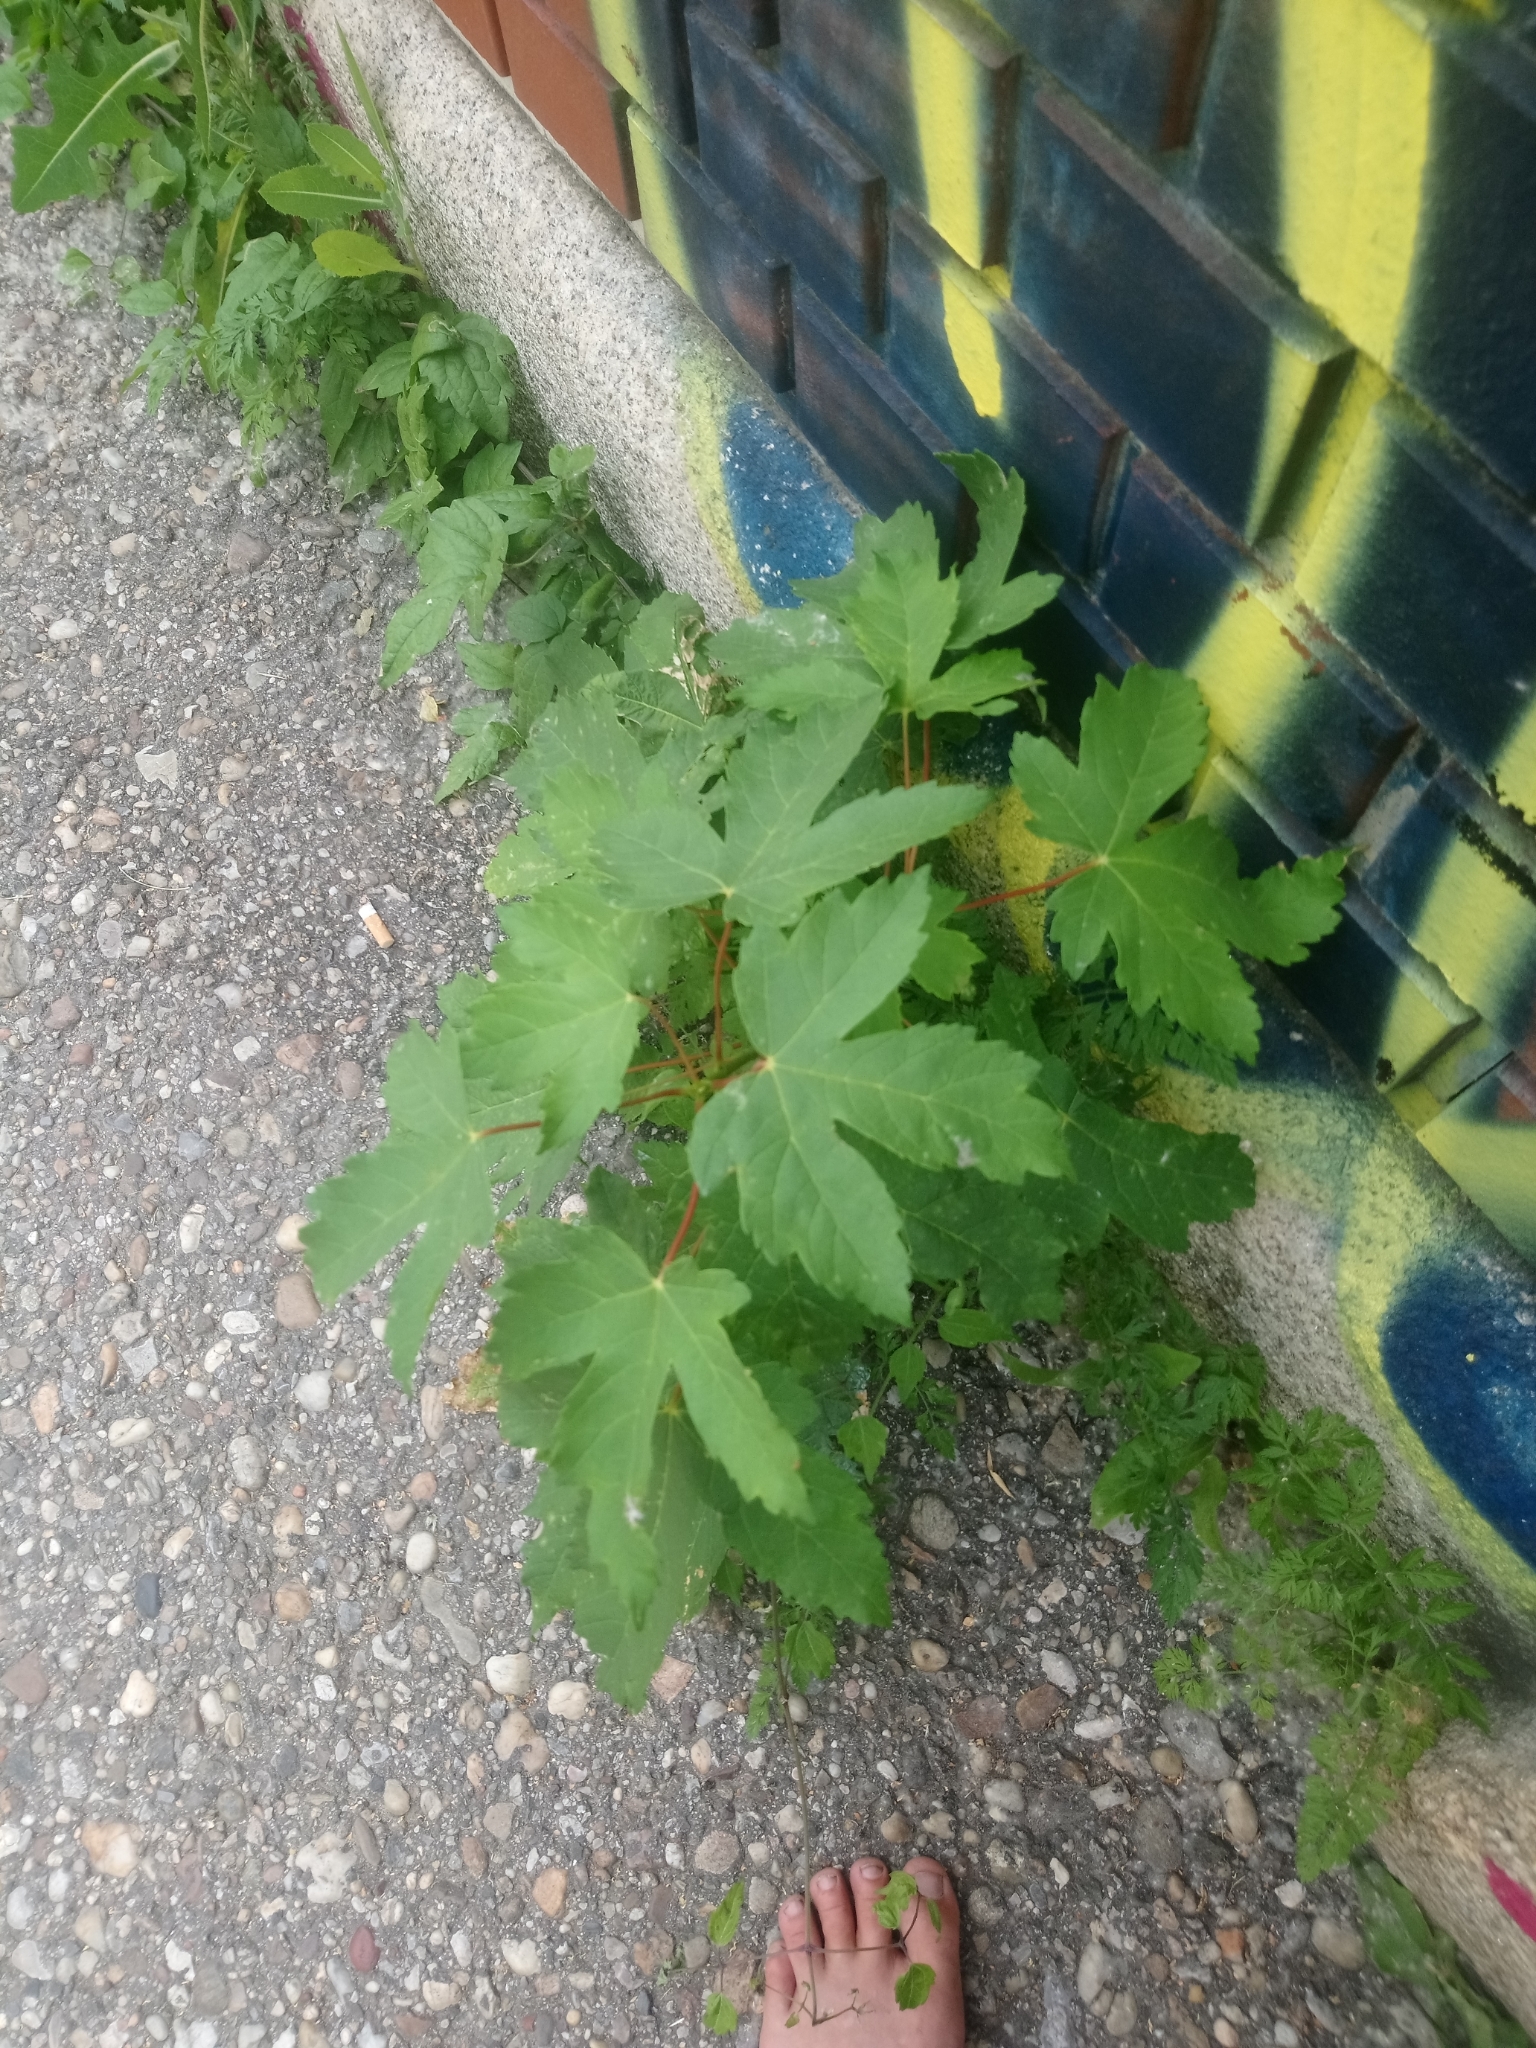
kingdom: Plantae
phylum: Tracheophyta
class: Magnoliopsida
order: Sapindales
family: Sapindaceae
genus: Acer
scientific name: Acer pseudoplatanus
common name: Sycamore
